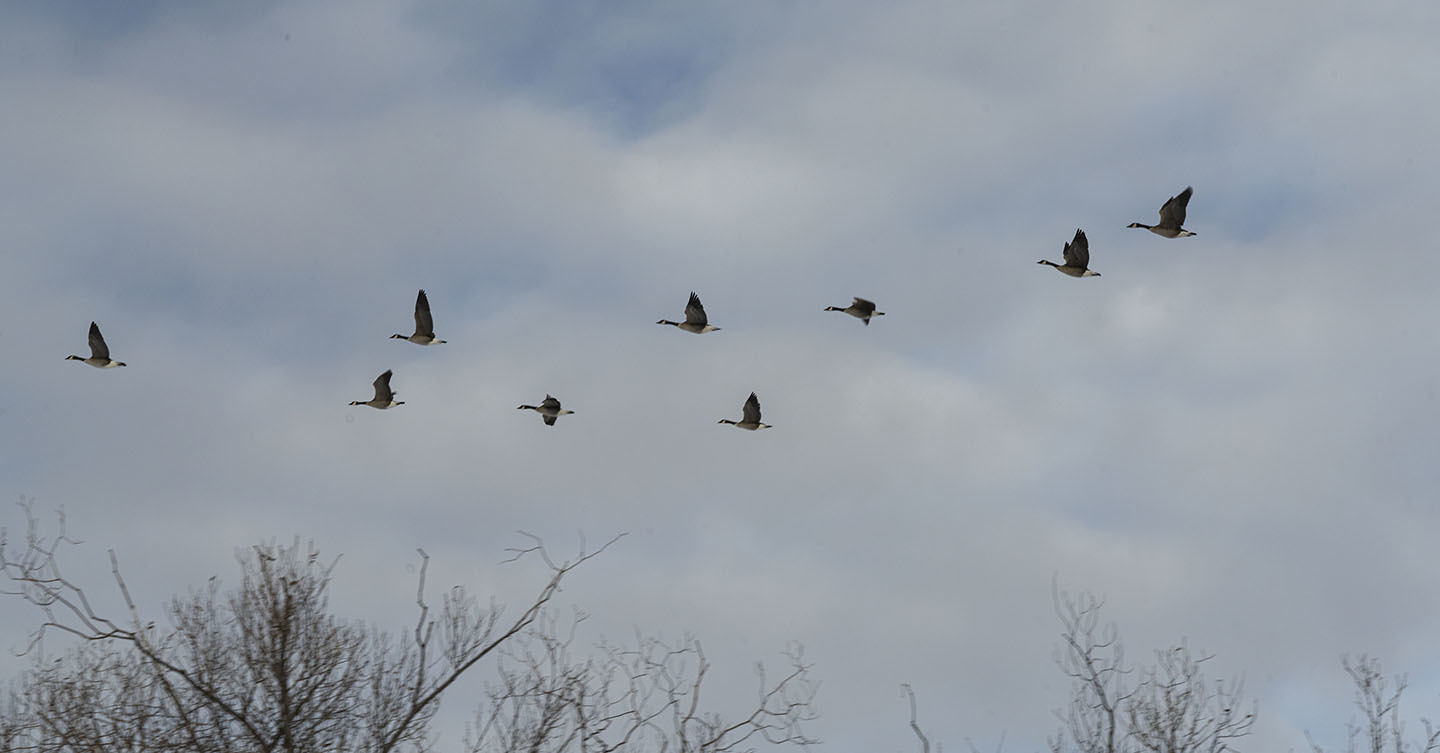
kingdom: Animalia
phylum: Chordata
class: Aves
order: Anseriformes
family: Anatidae
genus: Branta
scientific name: Branta canadensis
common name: Canada goose
